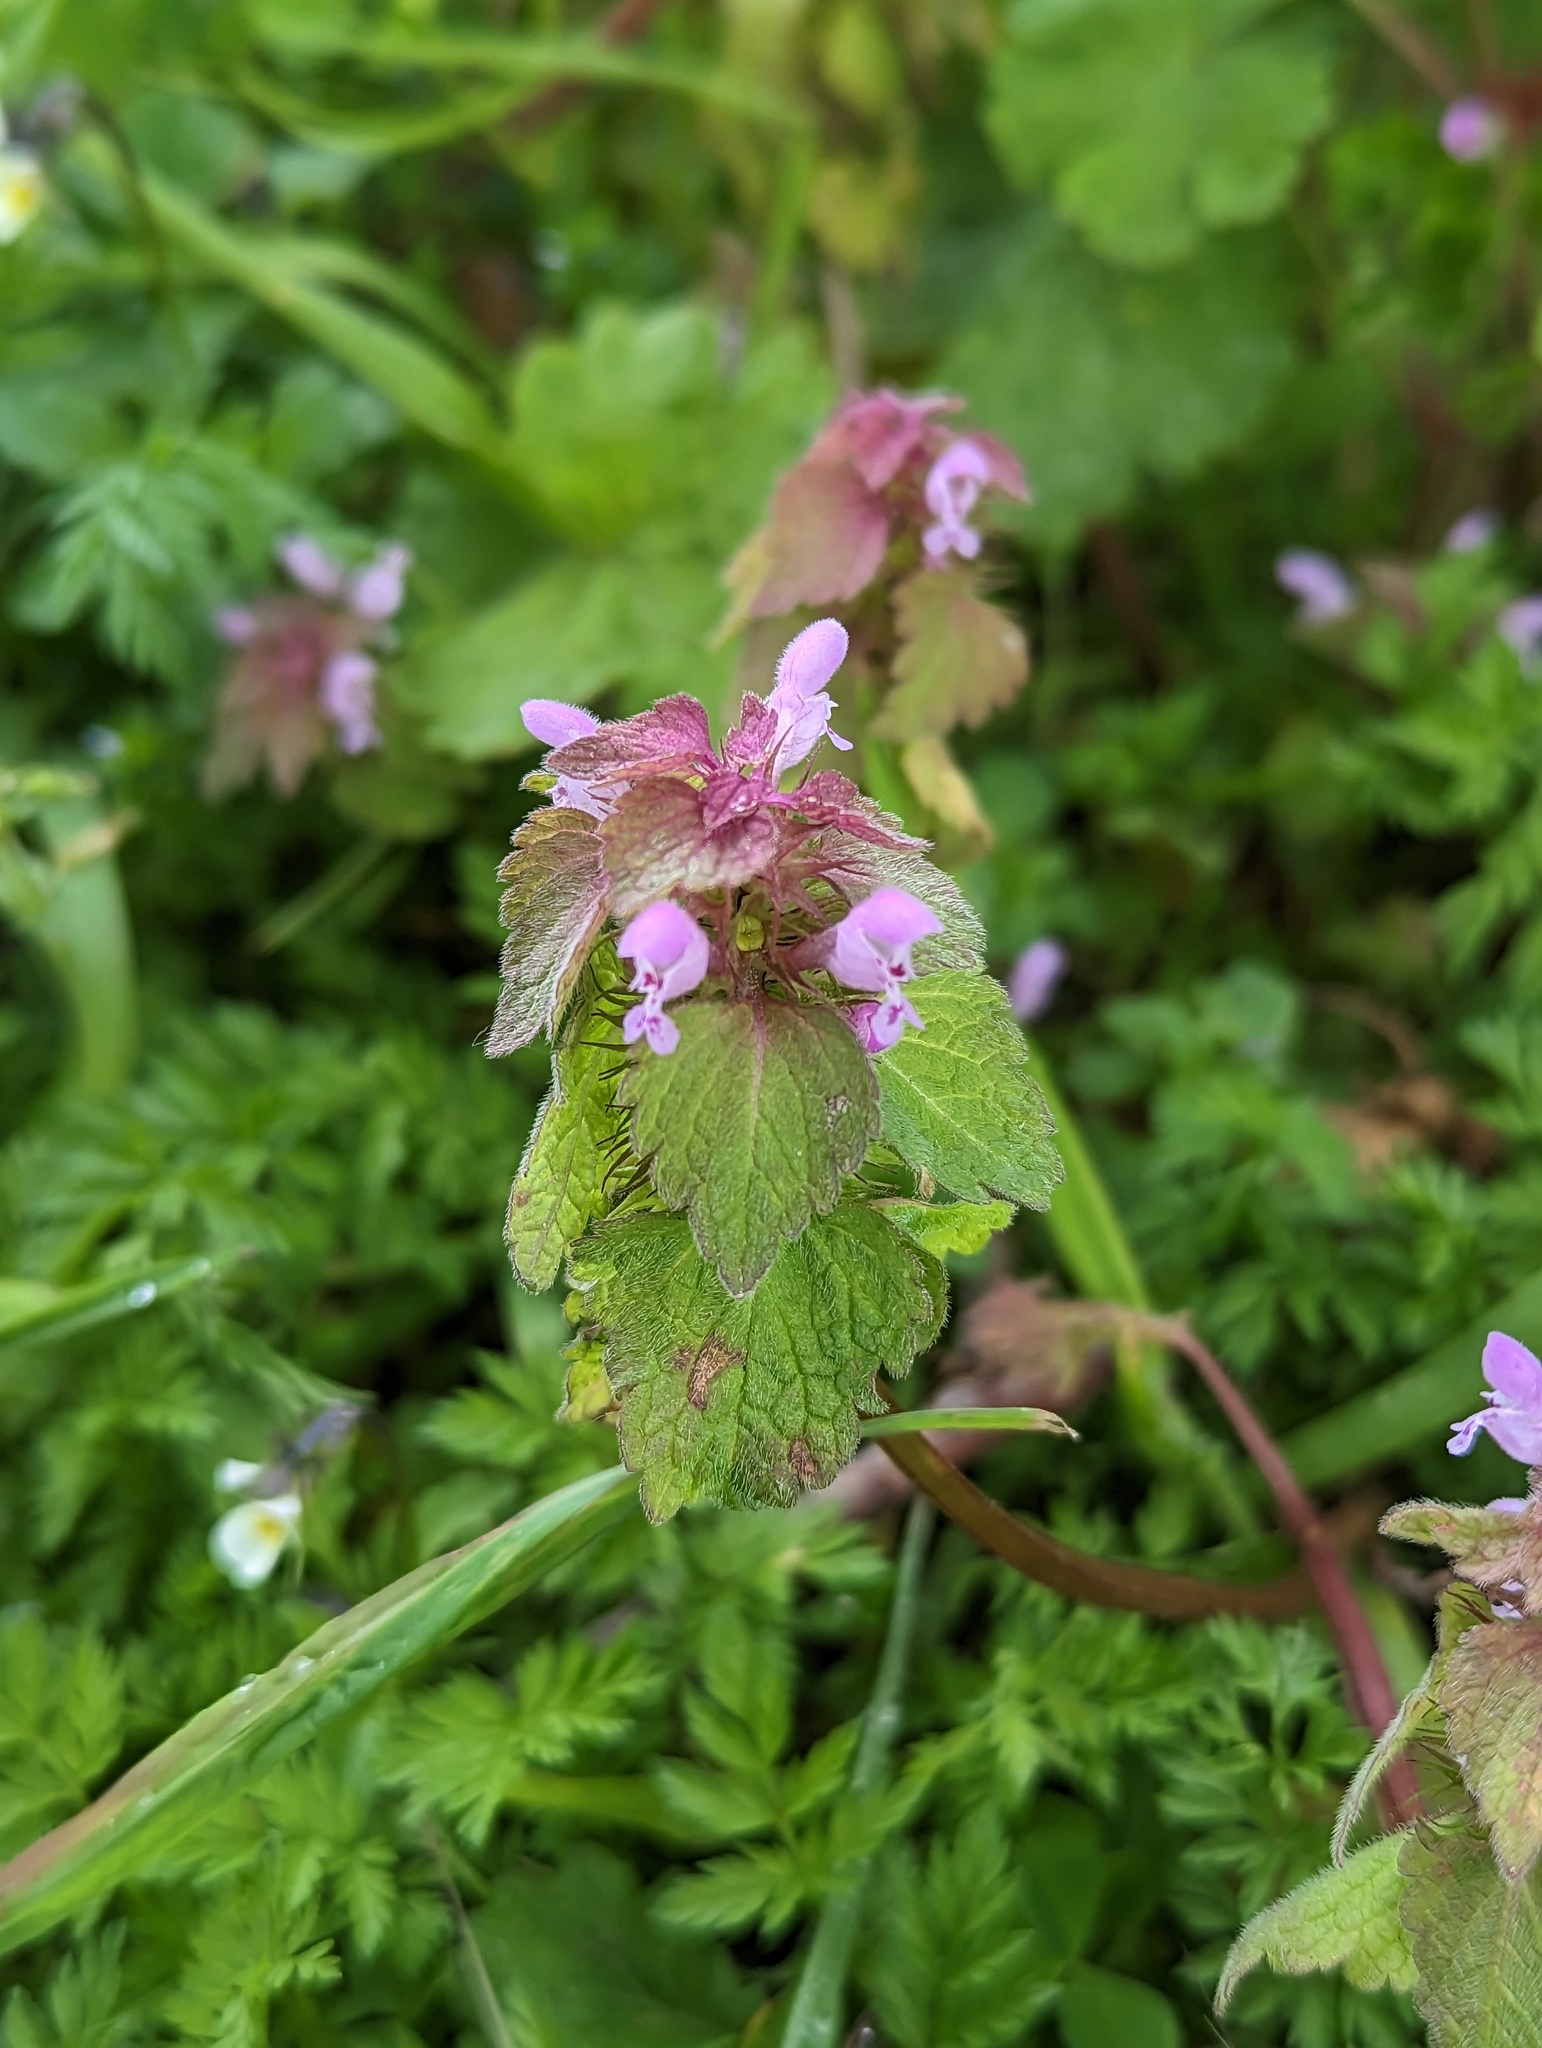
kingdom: Plantae
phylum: Tracheophyta
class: Magnoliopsida
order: Lamiales
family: Lamiaceae
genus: Lamium
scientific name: Lamium purpureum
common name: Red dead-nettle
